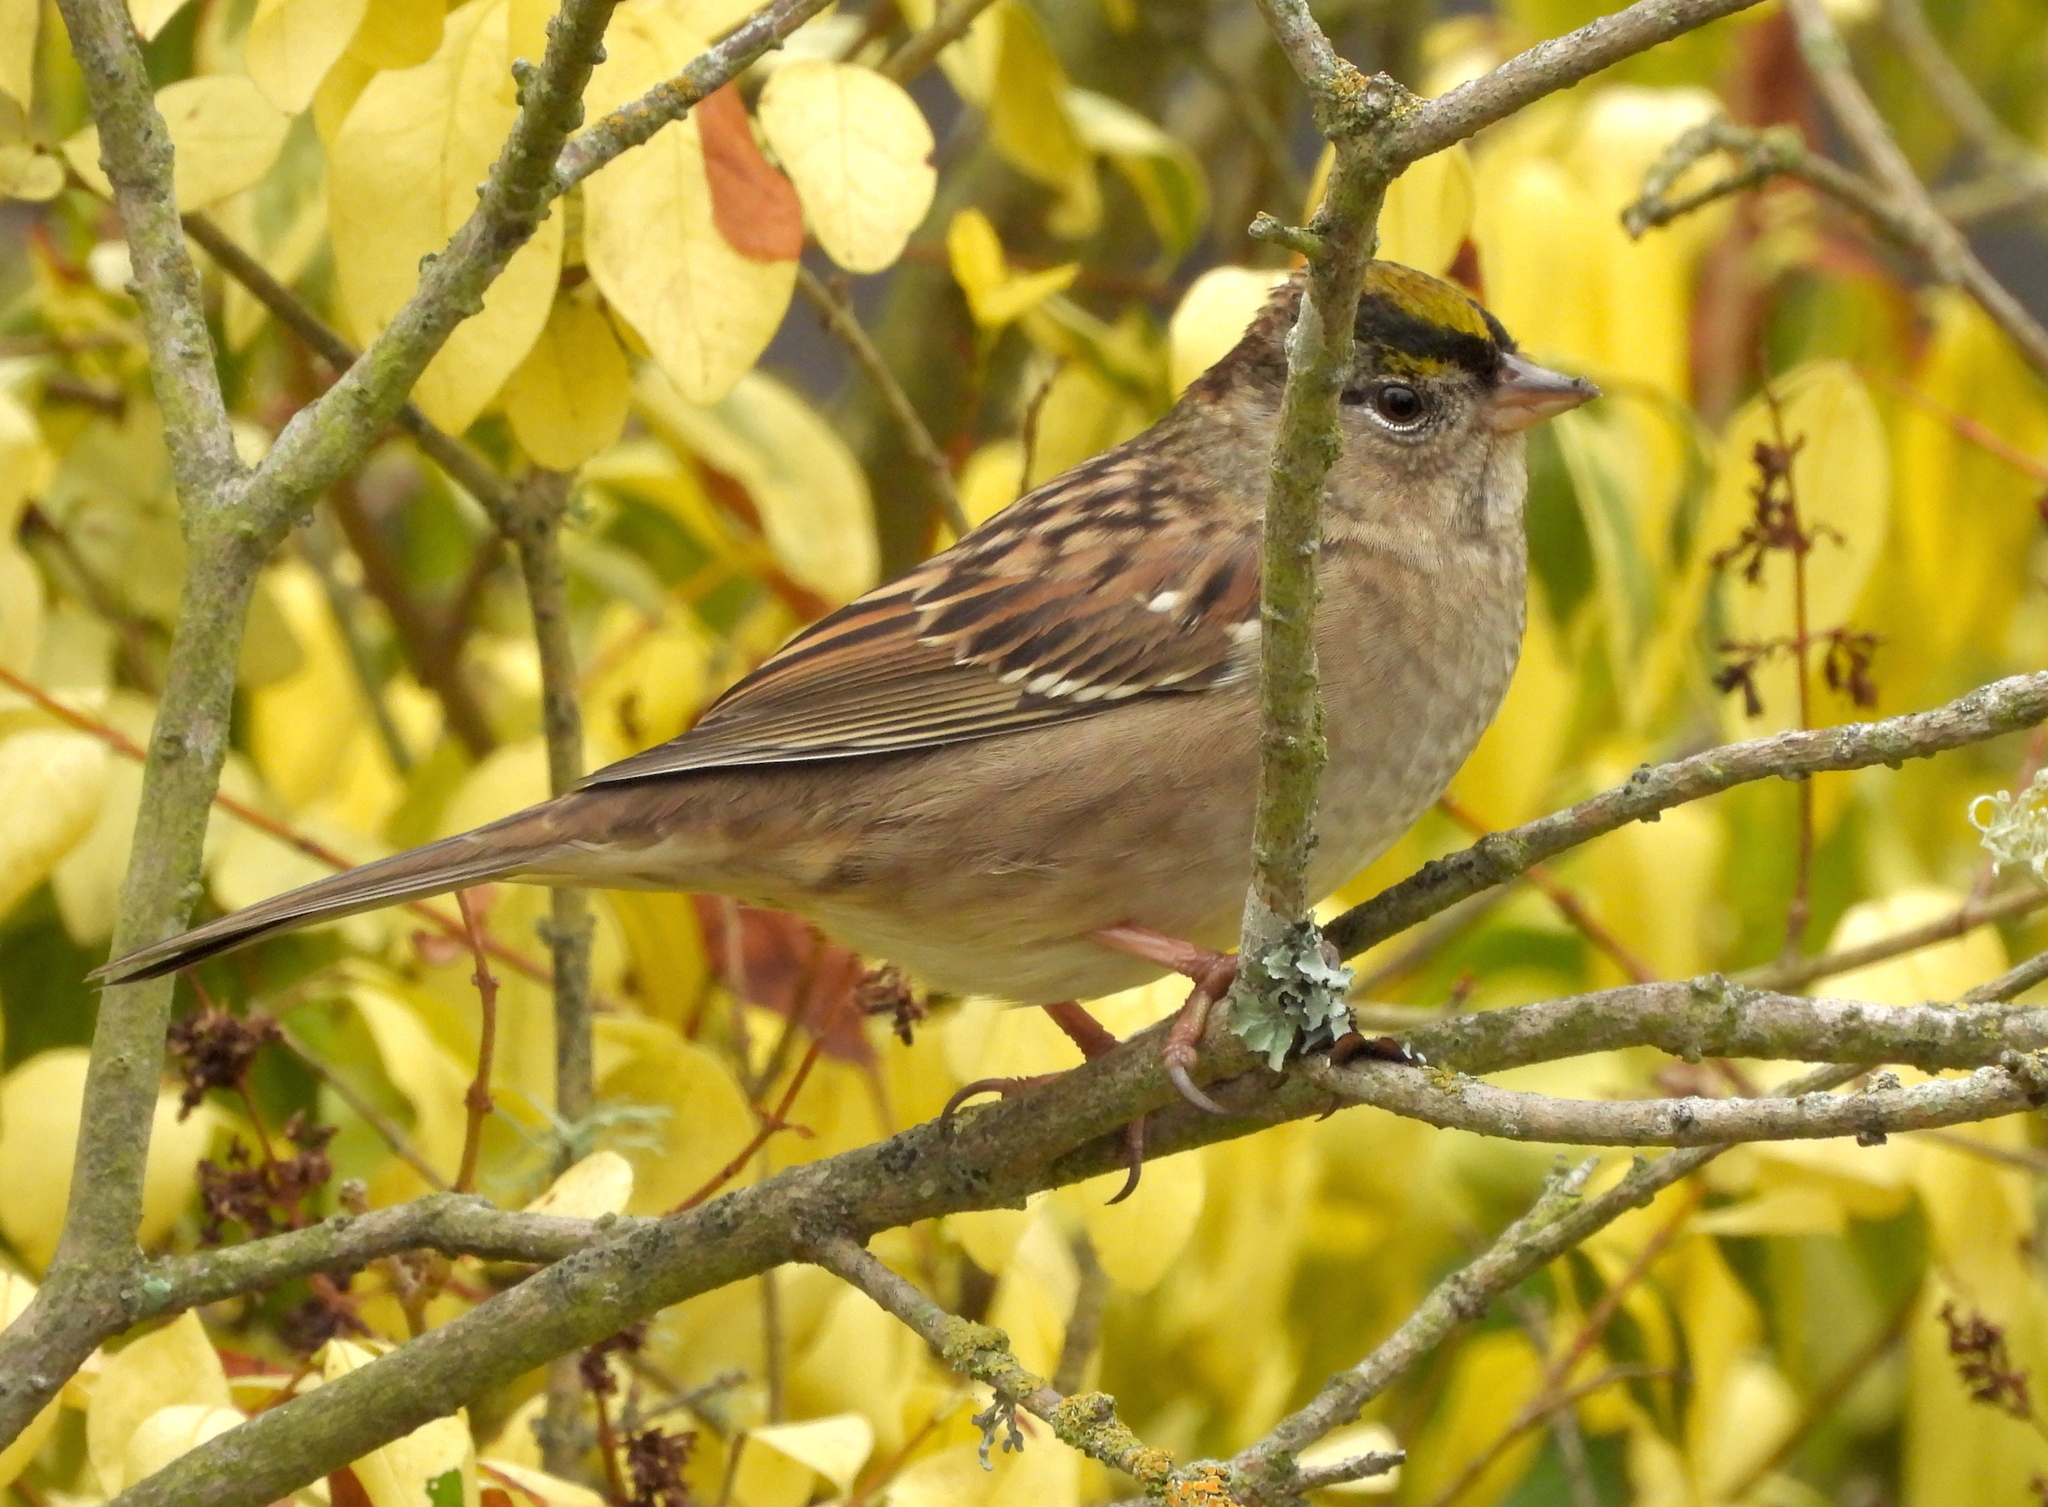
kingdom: Animalia
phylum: Chordata
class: Aves
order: Passeriformes
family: Passerellidae
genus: Zonotrichia
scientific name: Zonotrichia atricapilla
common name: Golden-crowned sparrow
